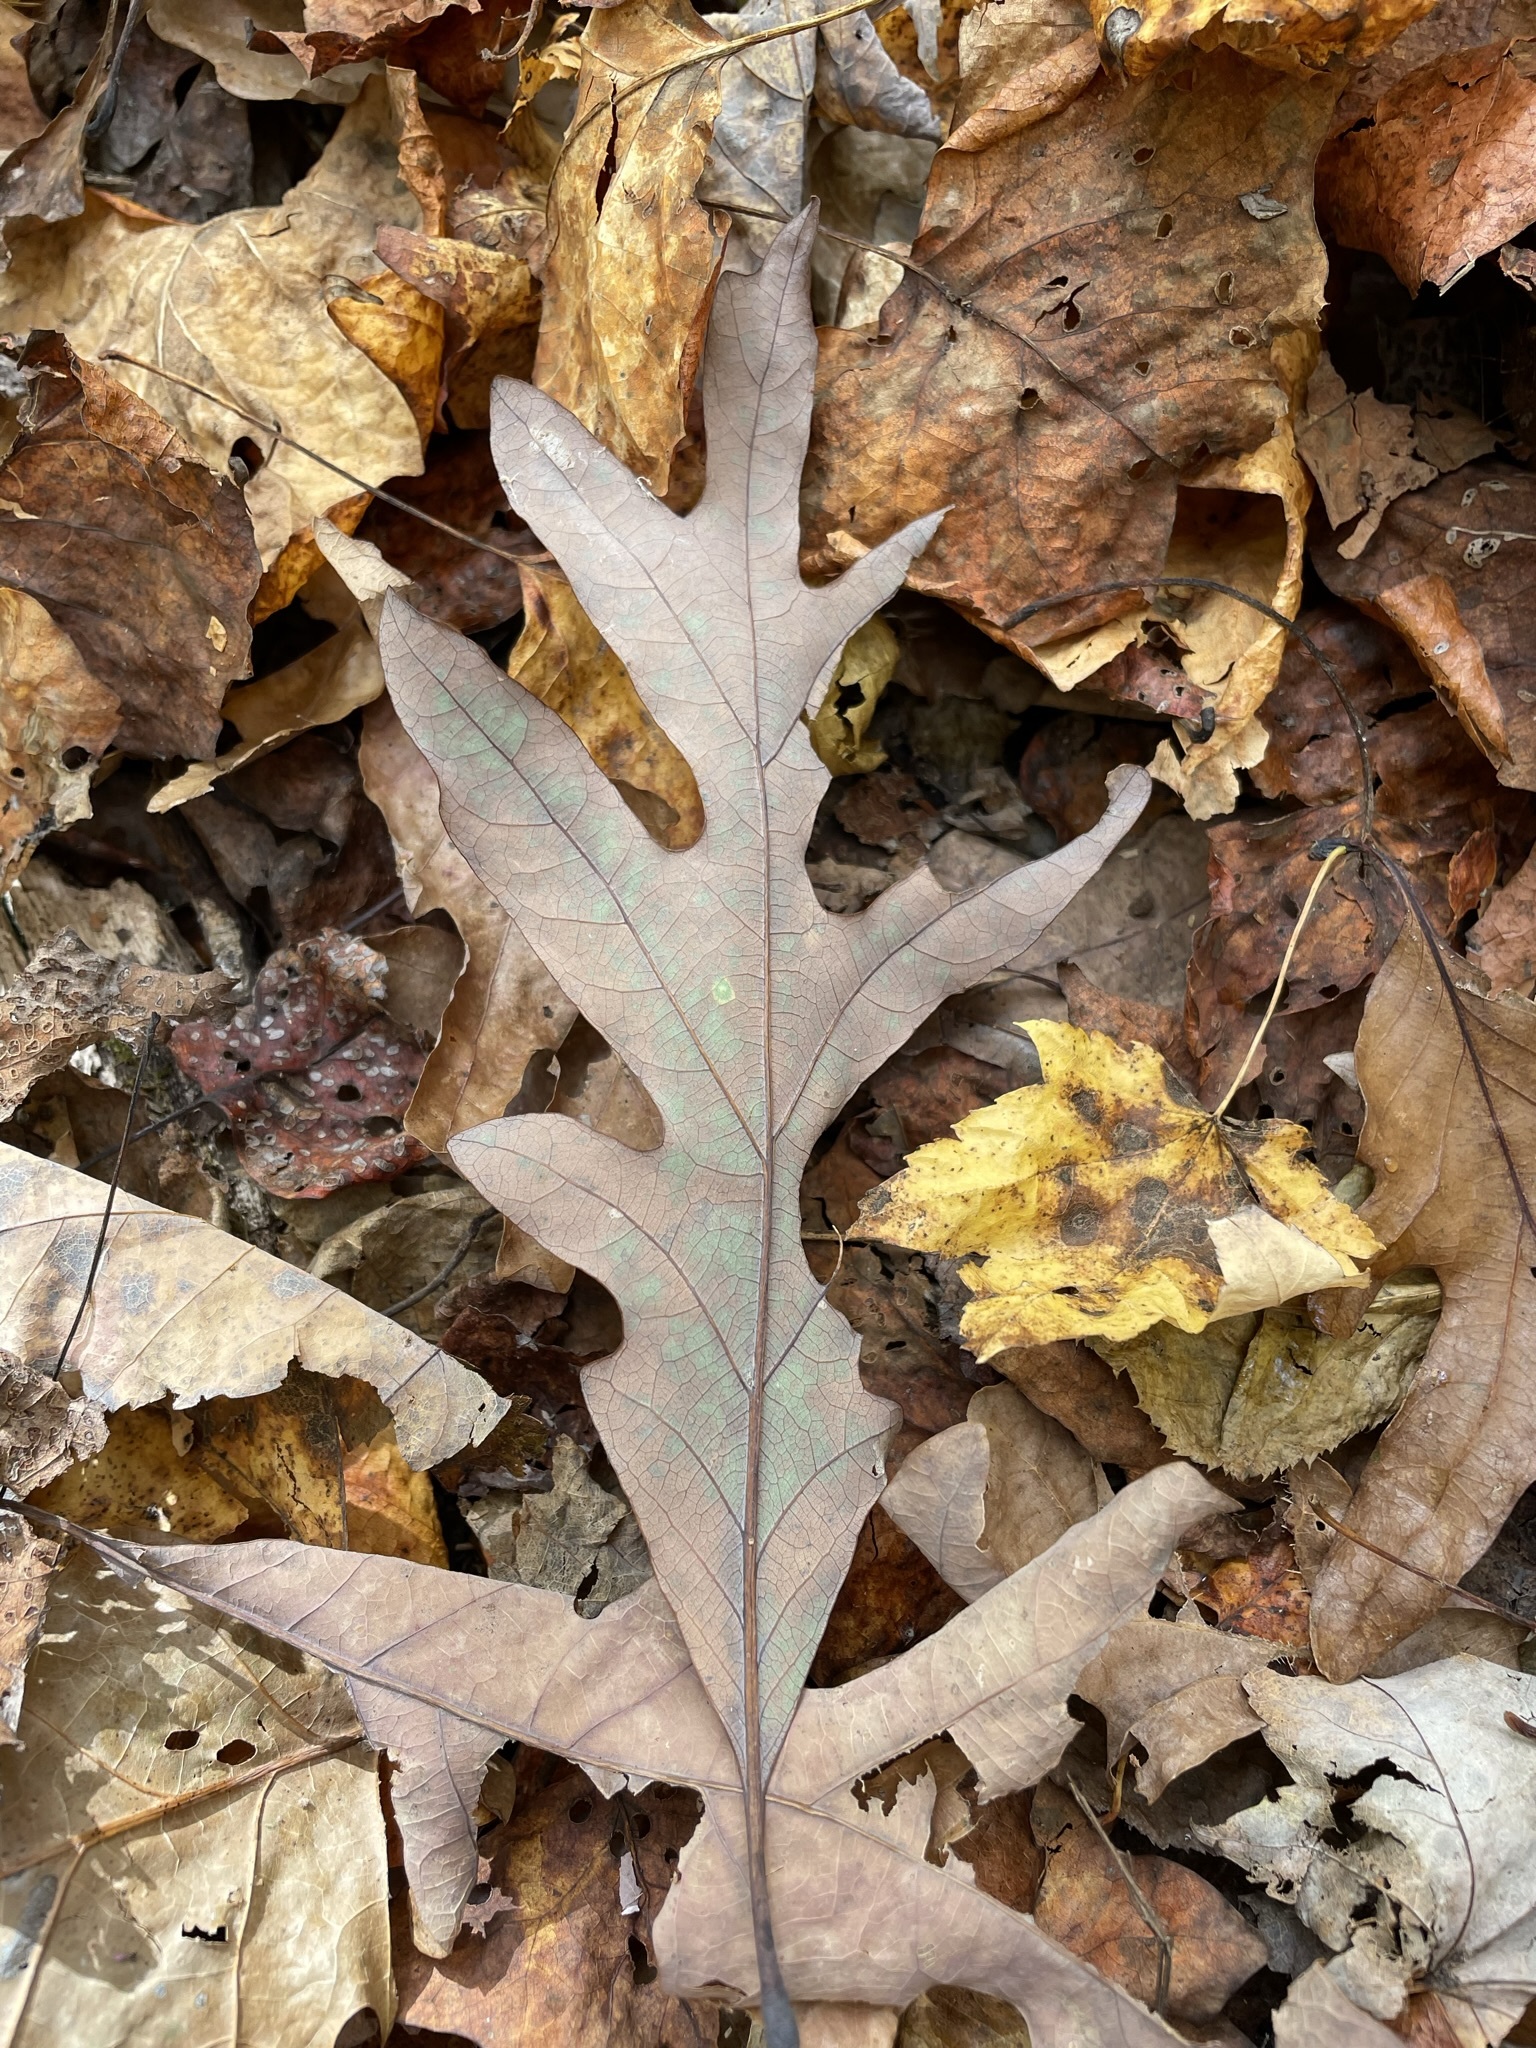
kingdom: Plantae
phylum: Tracheophyta
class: Magnoliopsida
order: Fagales
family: Fagaceae
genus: Quercus
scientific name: Quercus alba
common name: White oak
